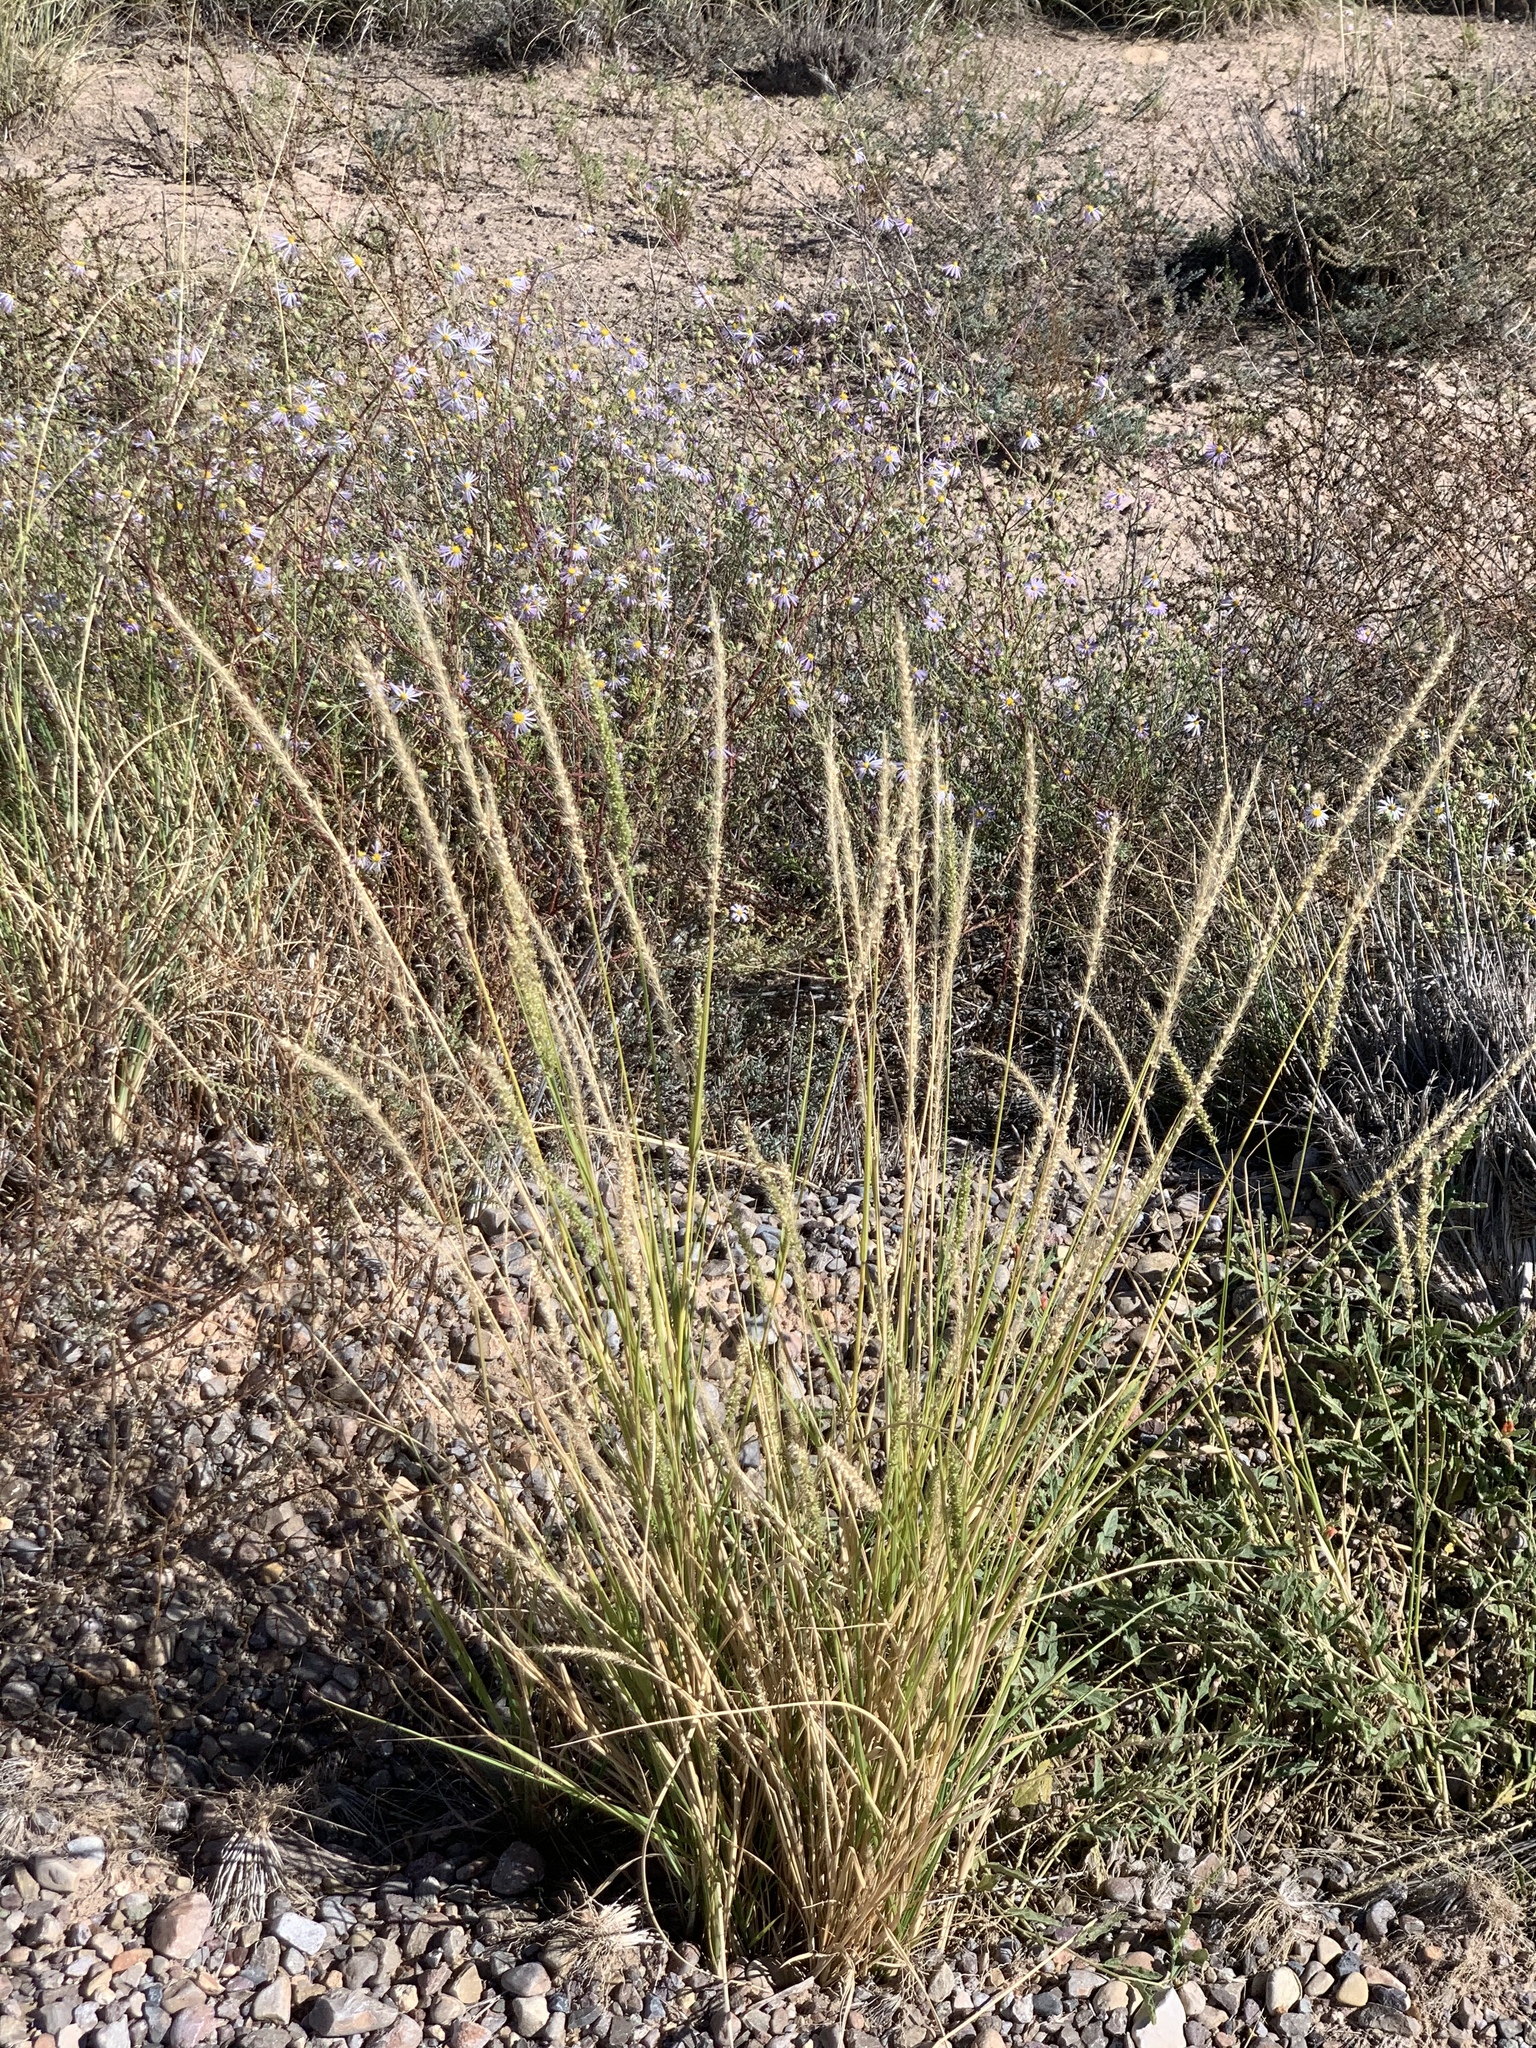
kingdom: Plantae
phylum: Tracheophyta
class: Liliopsida
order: Poales
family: Poaceae
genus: Setaria
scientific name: Setaria leucopila
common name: Plains bristle grass
